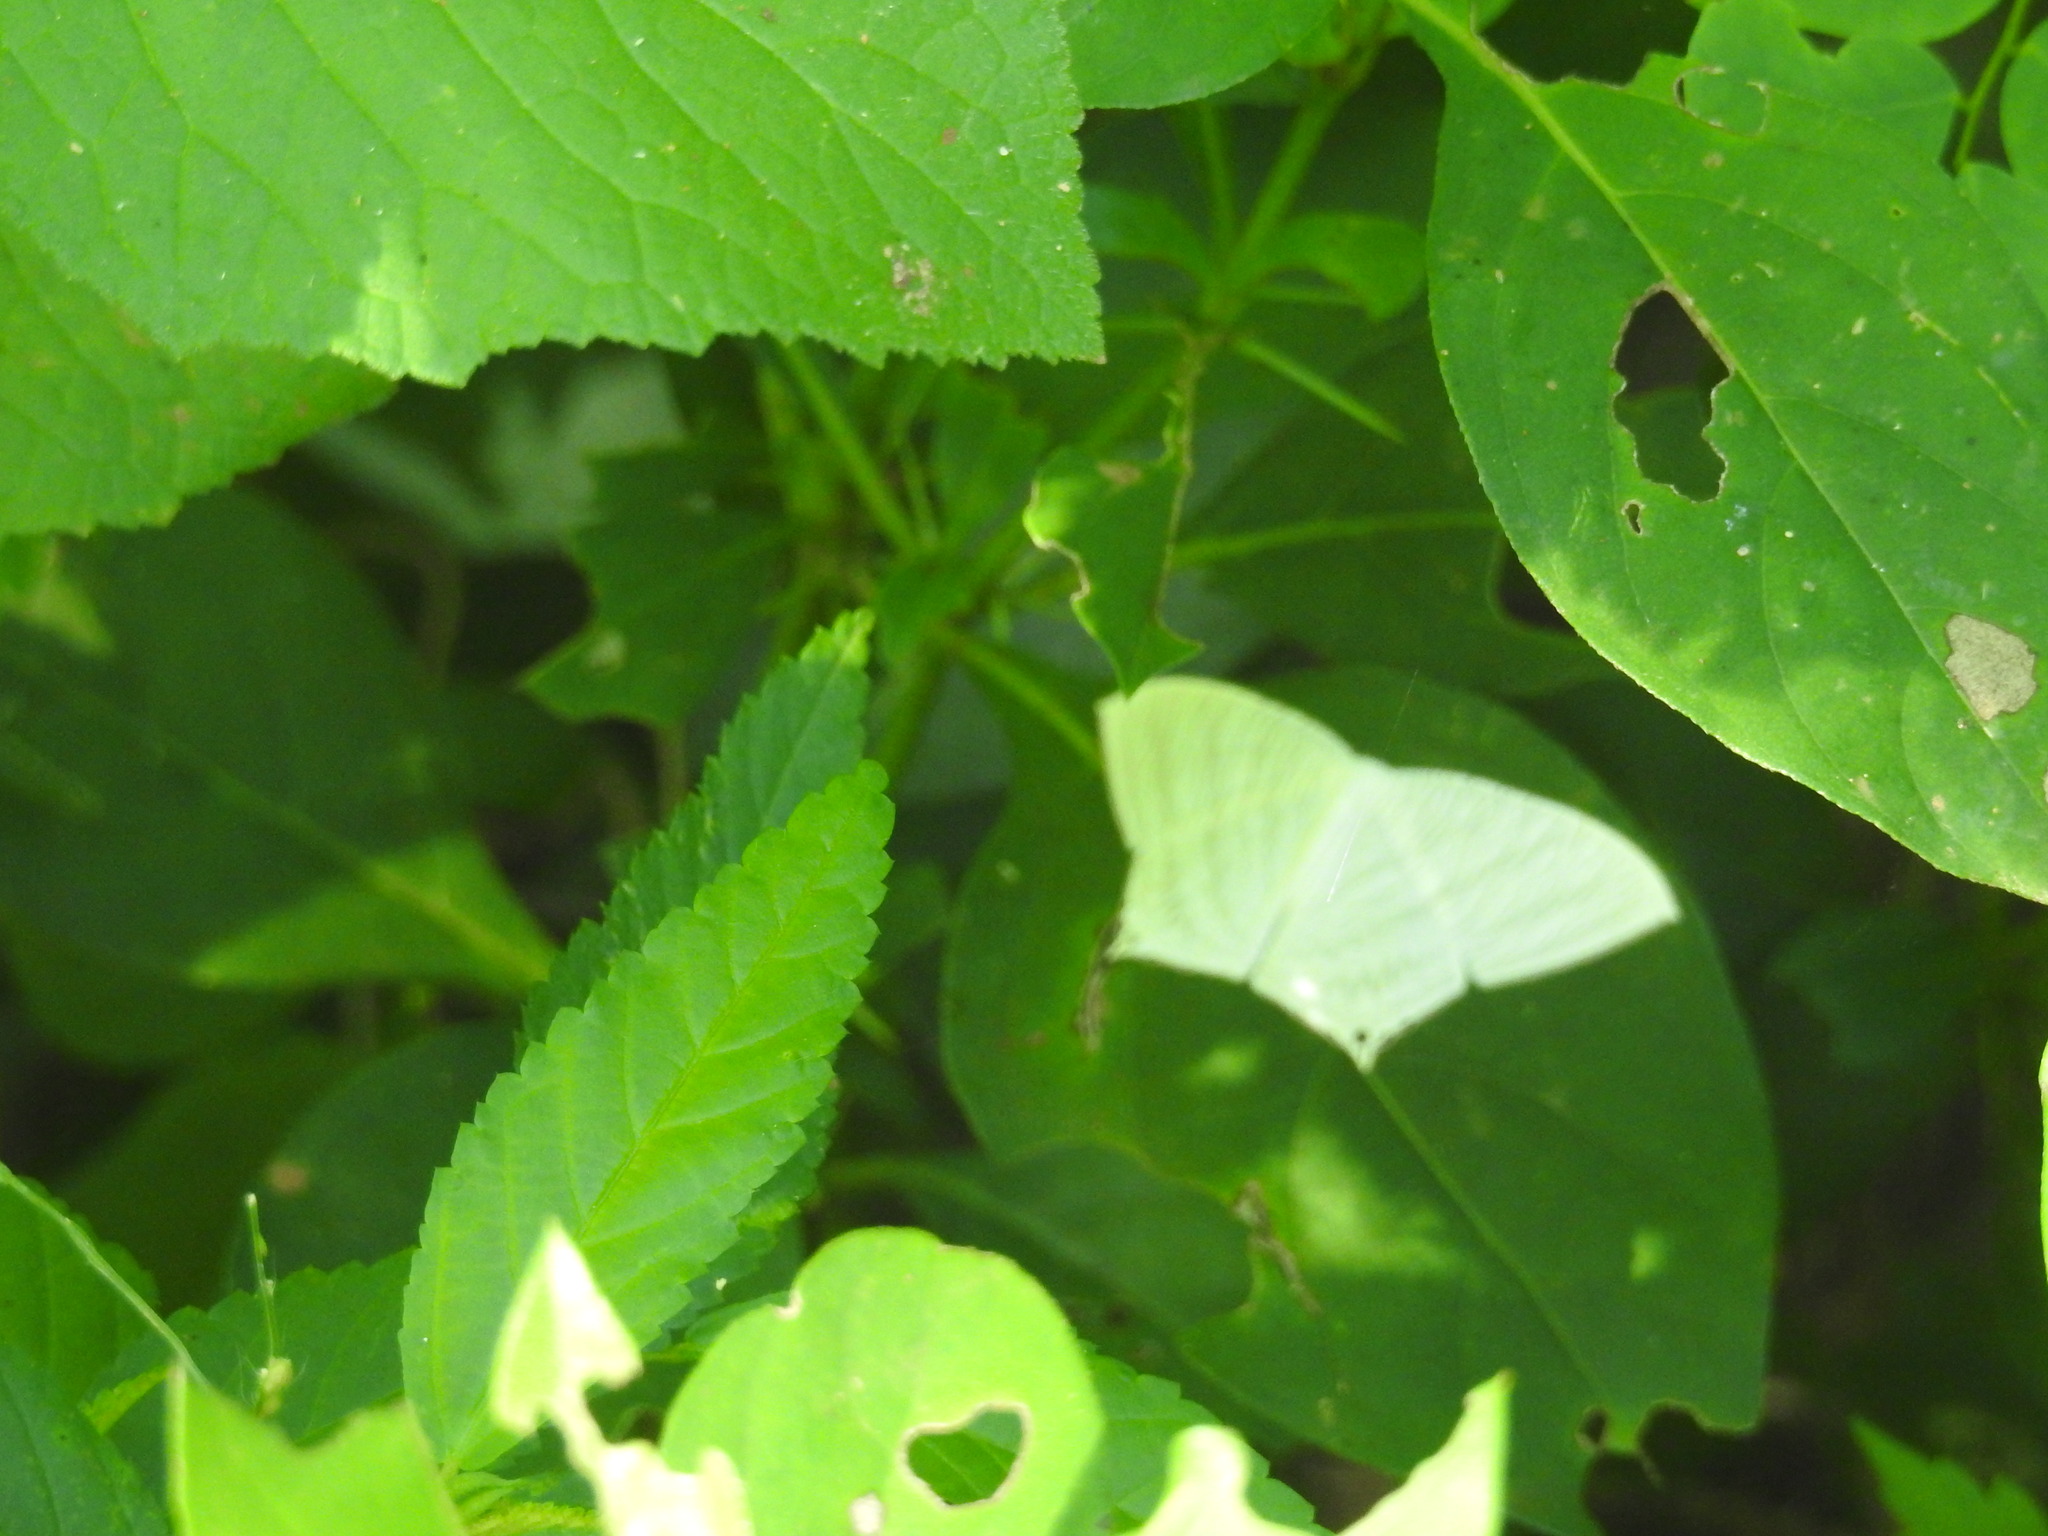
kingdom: Animalia
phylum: Arthropoda
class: Insecta
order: Lepidoptera
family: Uraniidae
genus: Micronia
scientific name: Micronia aculeata
